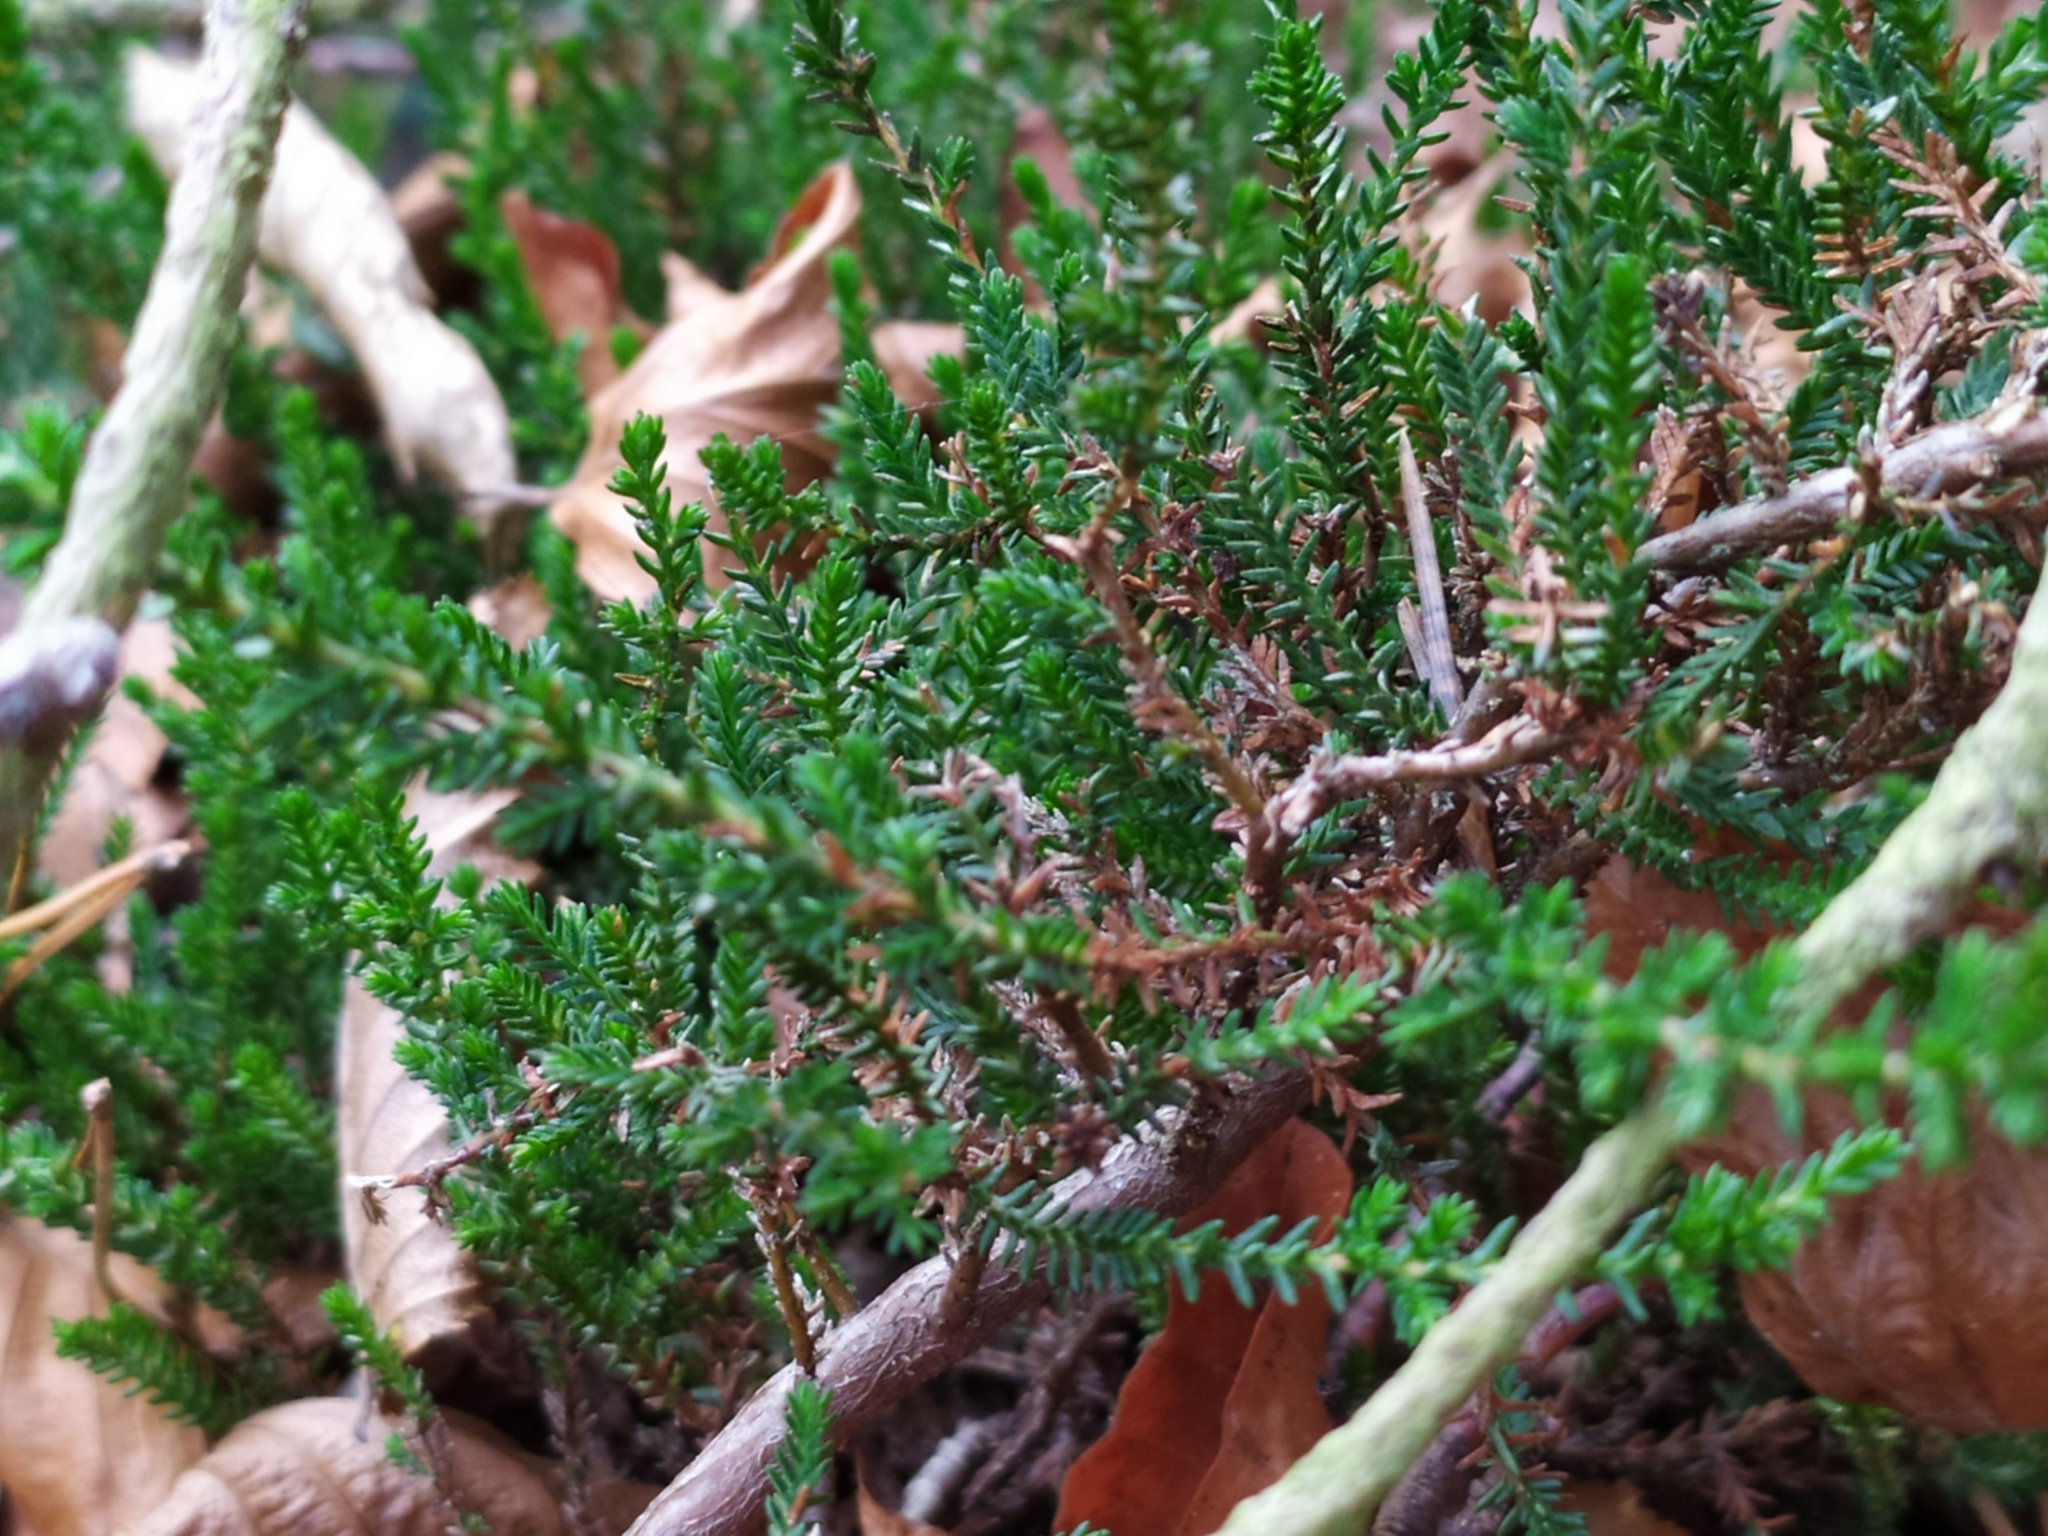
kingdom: Plantae
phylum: Tracheophyta
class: Magnoliopsida
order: Ericales
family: Ericaceae
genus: Calluna
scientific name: Calluna vulgaris
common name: Heather
